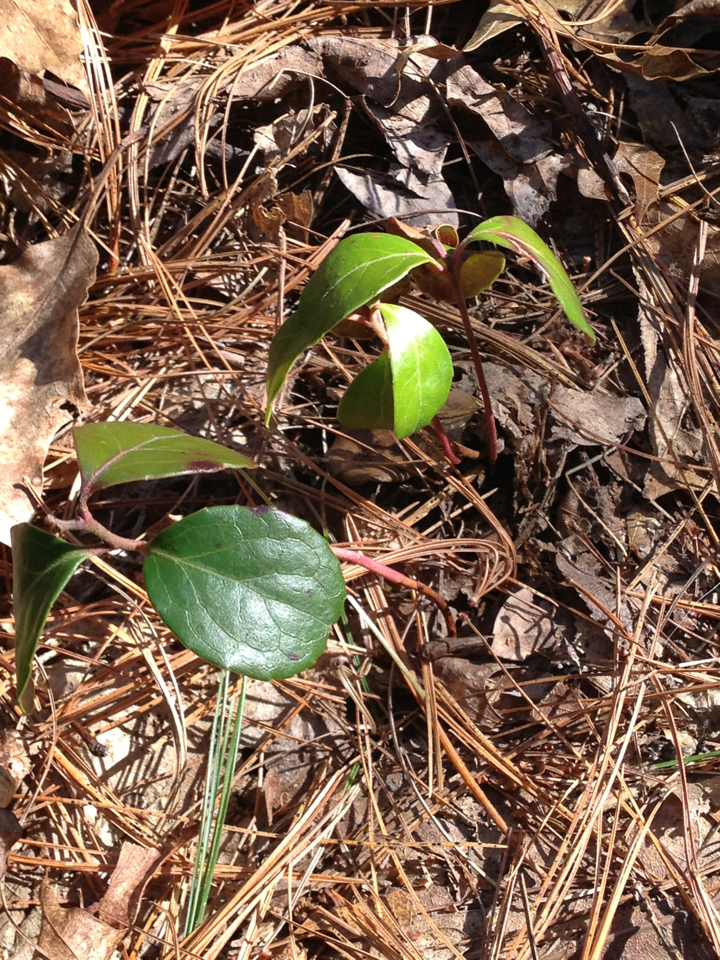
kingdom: Plantae
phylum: Tracheophyta
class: Magnoliopsida
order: Ericales
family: Ericaceae
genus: Gaultheria
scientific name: Gaultheria procumbens
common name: Checkerberry
